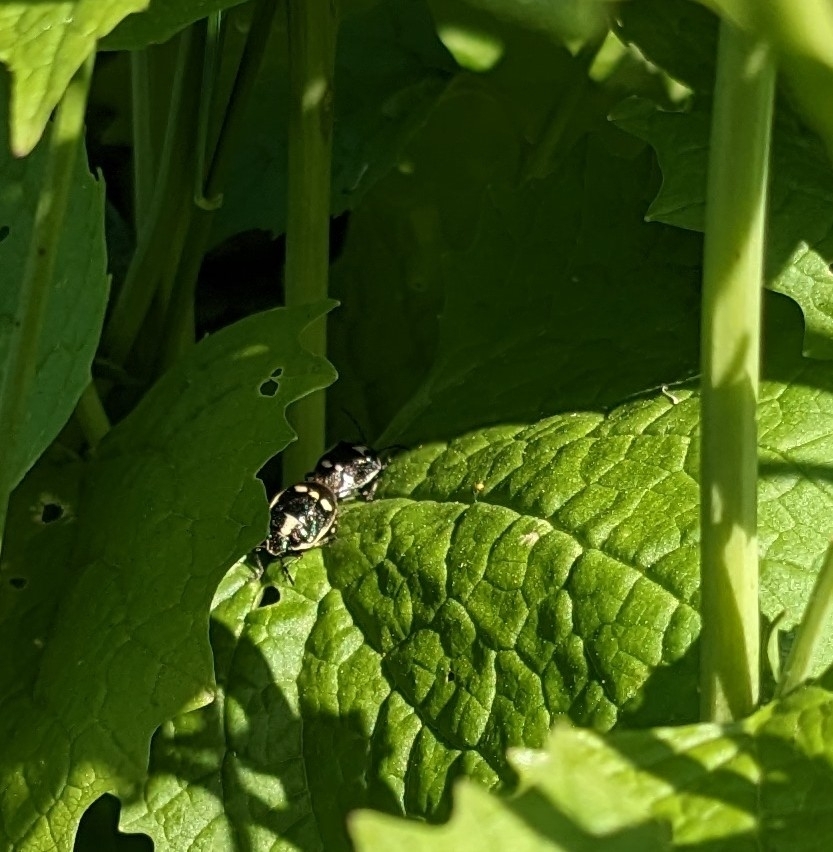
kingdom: Animalia
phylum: Arthropoda
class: Insecta
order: Hemiptera
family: Pentatomidae
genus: Eurydema
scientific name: Eurydema oleracea
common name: Cabbage bug
